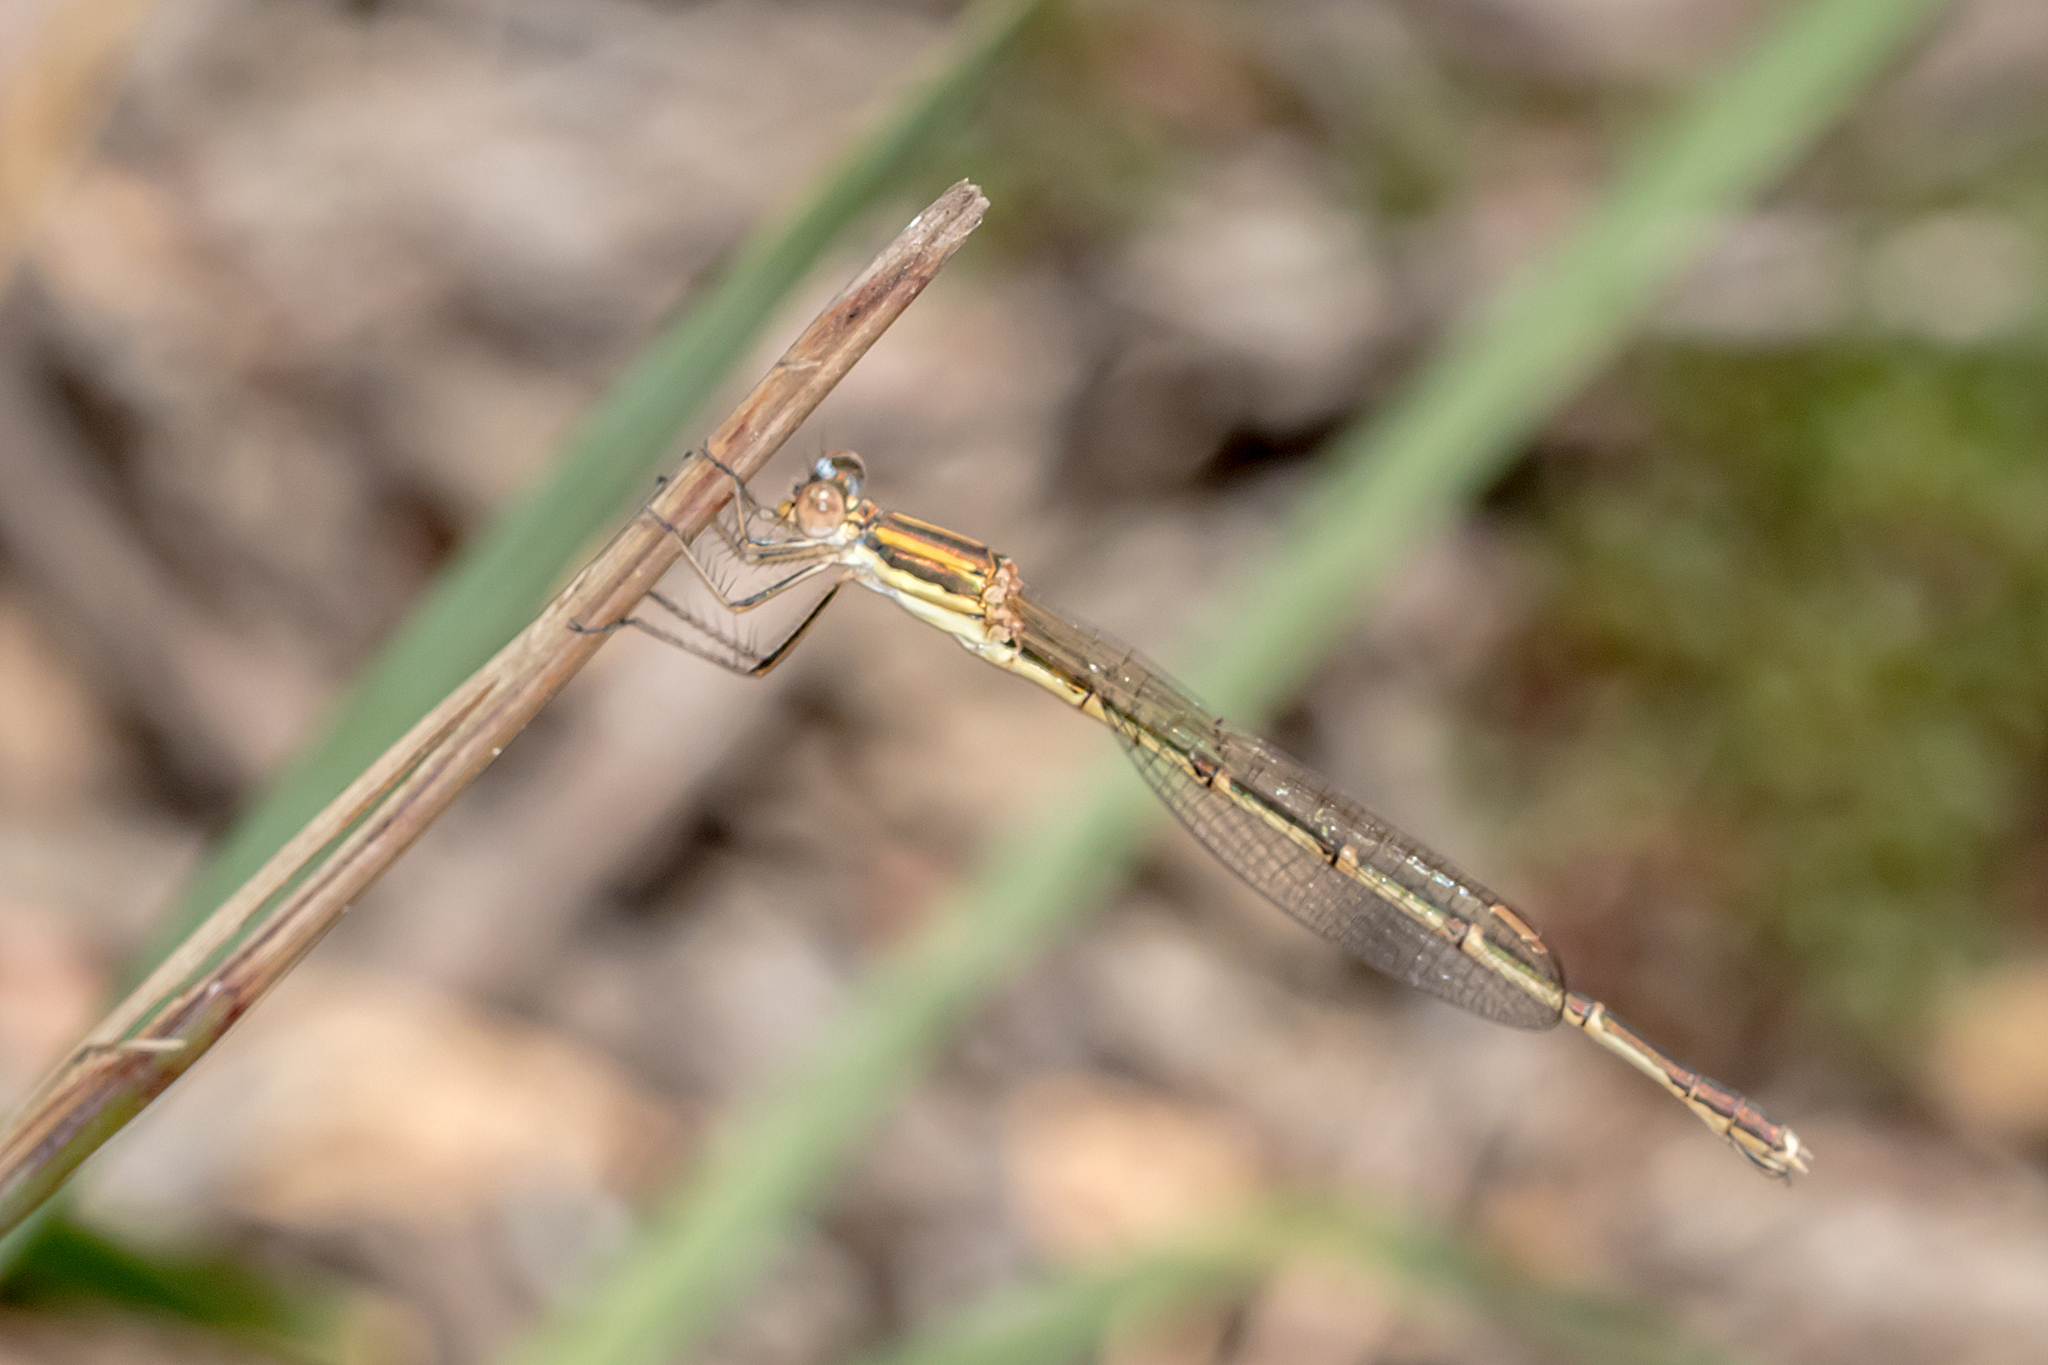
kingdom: Animalia
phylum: Arthropoda
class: Insecta
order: Odonata
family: Lestidae
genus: Austrolestes
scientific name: Austrolestes analis
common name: Slender ringtail
